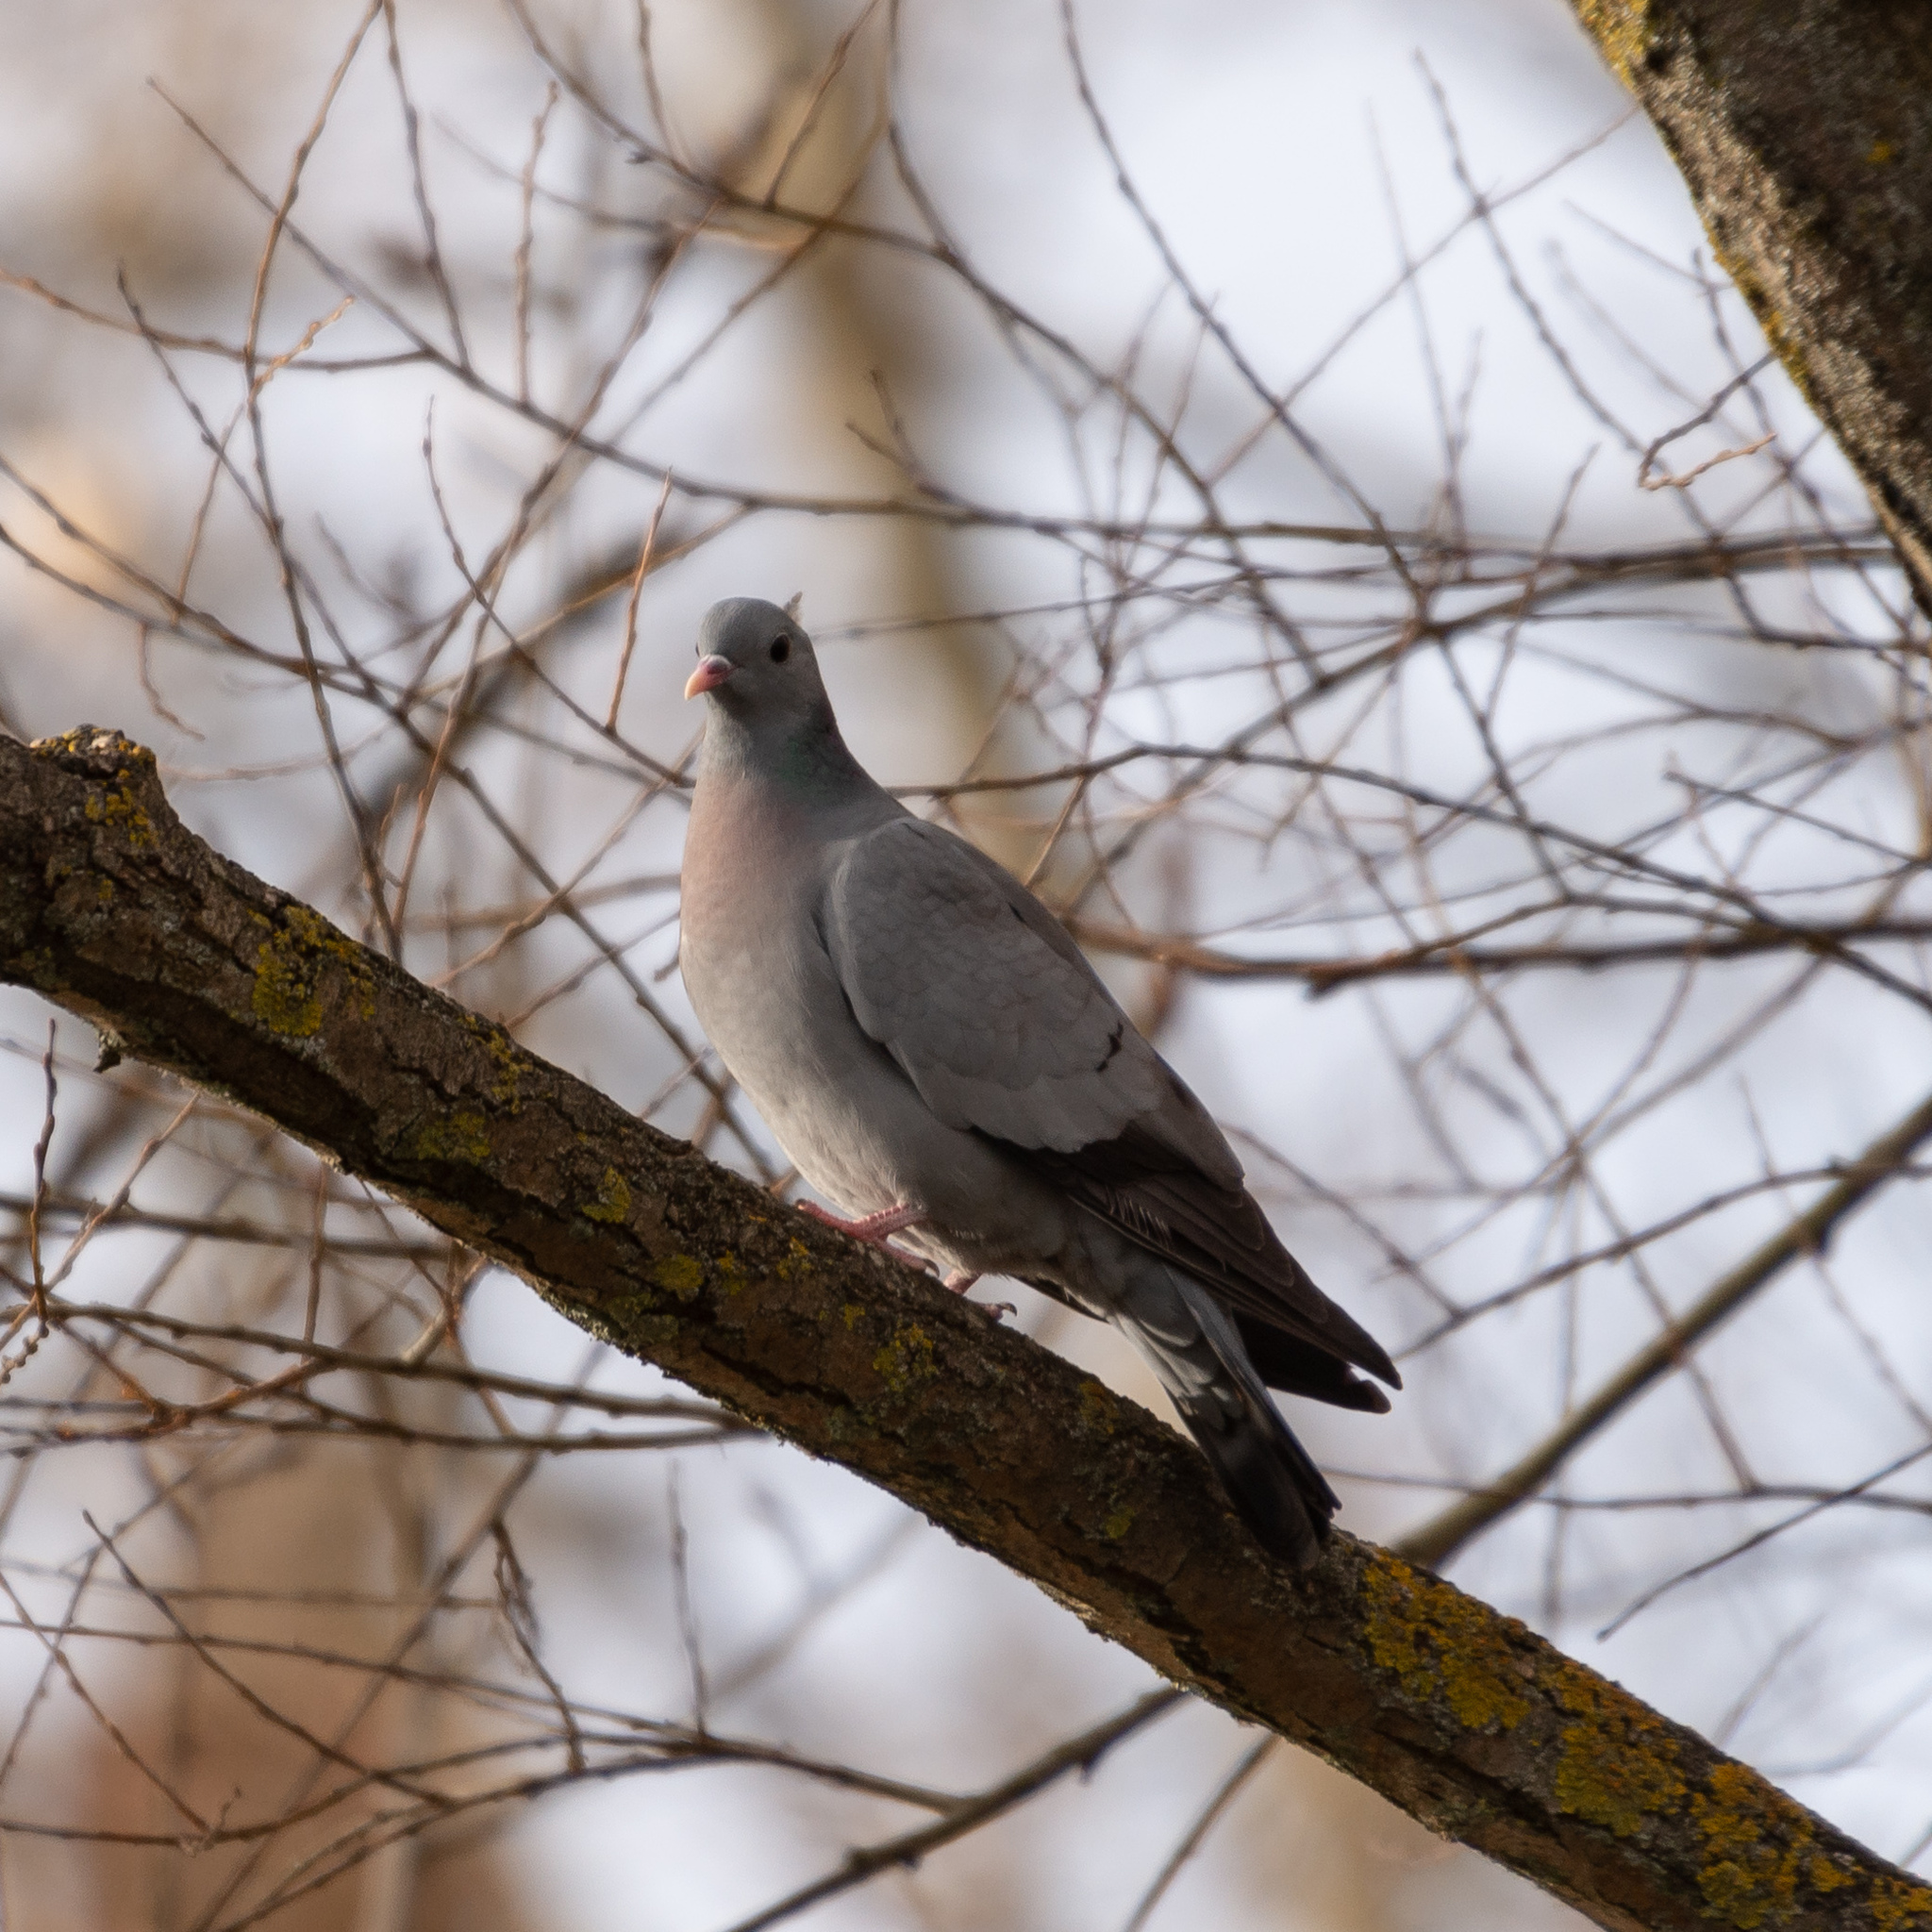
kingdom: Animalia
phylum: Chordata
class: Aves
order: Columbiformes
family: Columbidae
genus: Columba
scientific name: Columba oenas
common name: Stock dove
